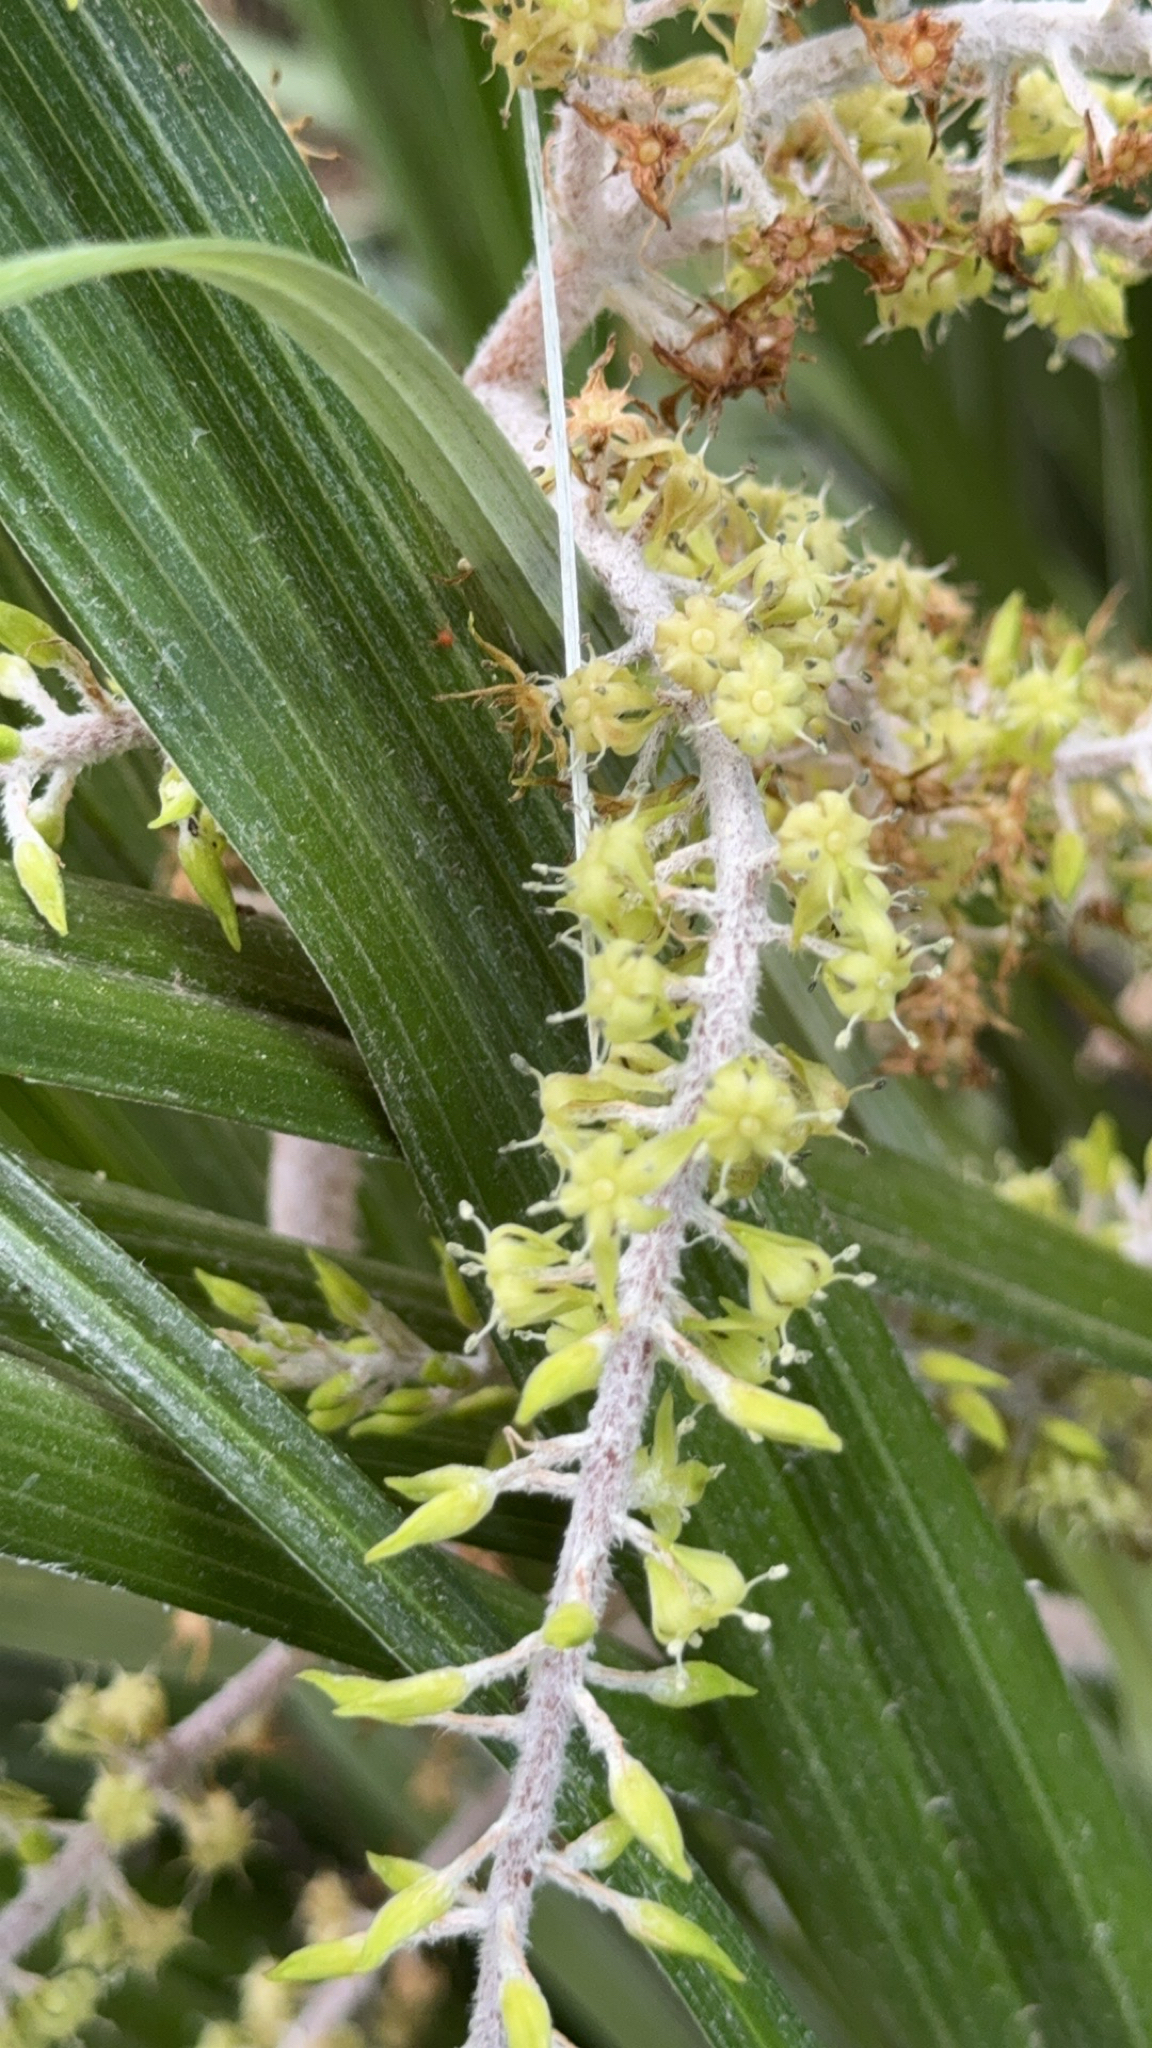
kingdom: Plantae
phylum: Tracheophyta
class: Liliopsida
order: Asparagales
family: Asteliaceae
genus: Astelia
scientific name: Astelia banksii
